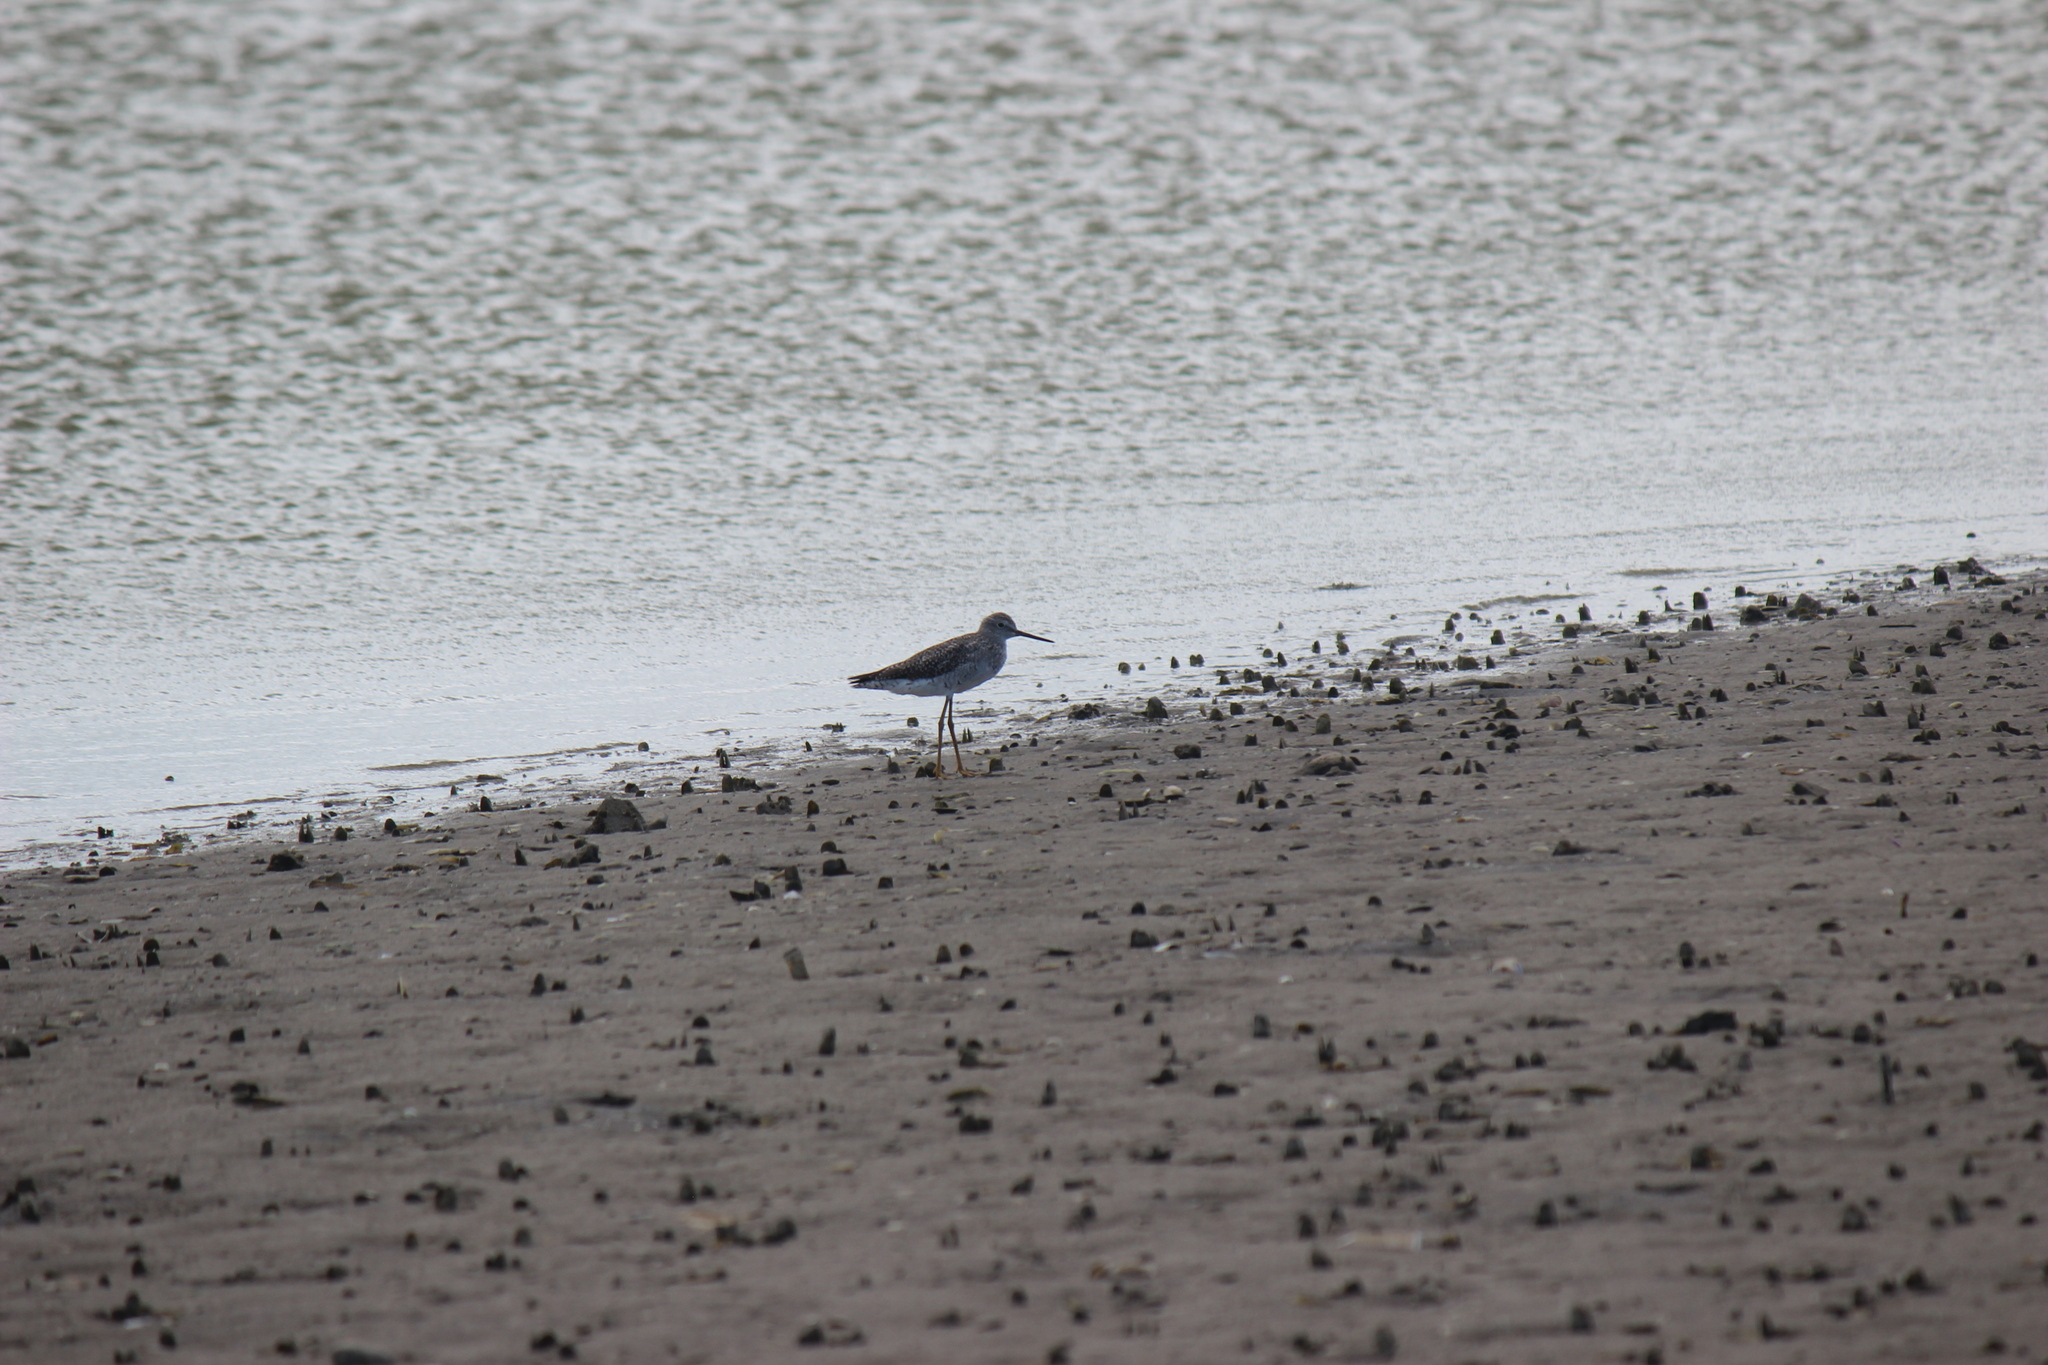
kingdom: Animalia
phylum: Chordata
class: Aves
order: Charadriiformes
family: Scolopacidae
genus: Tringa
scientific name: Tringa flavipes
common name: Lesser yellowlegs
